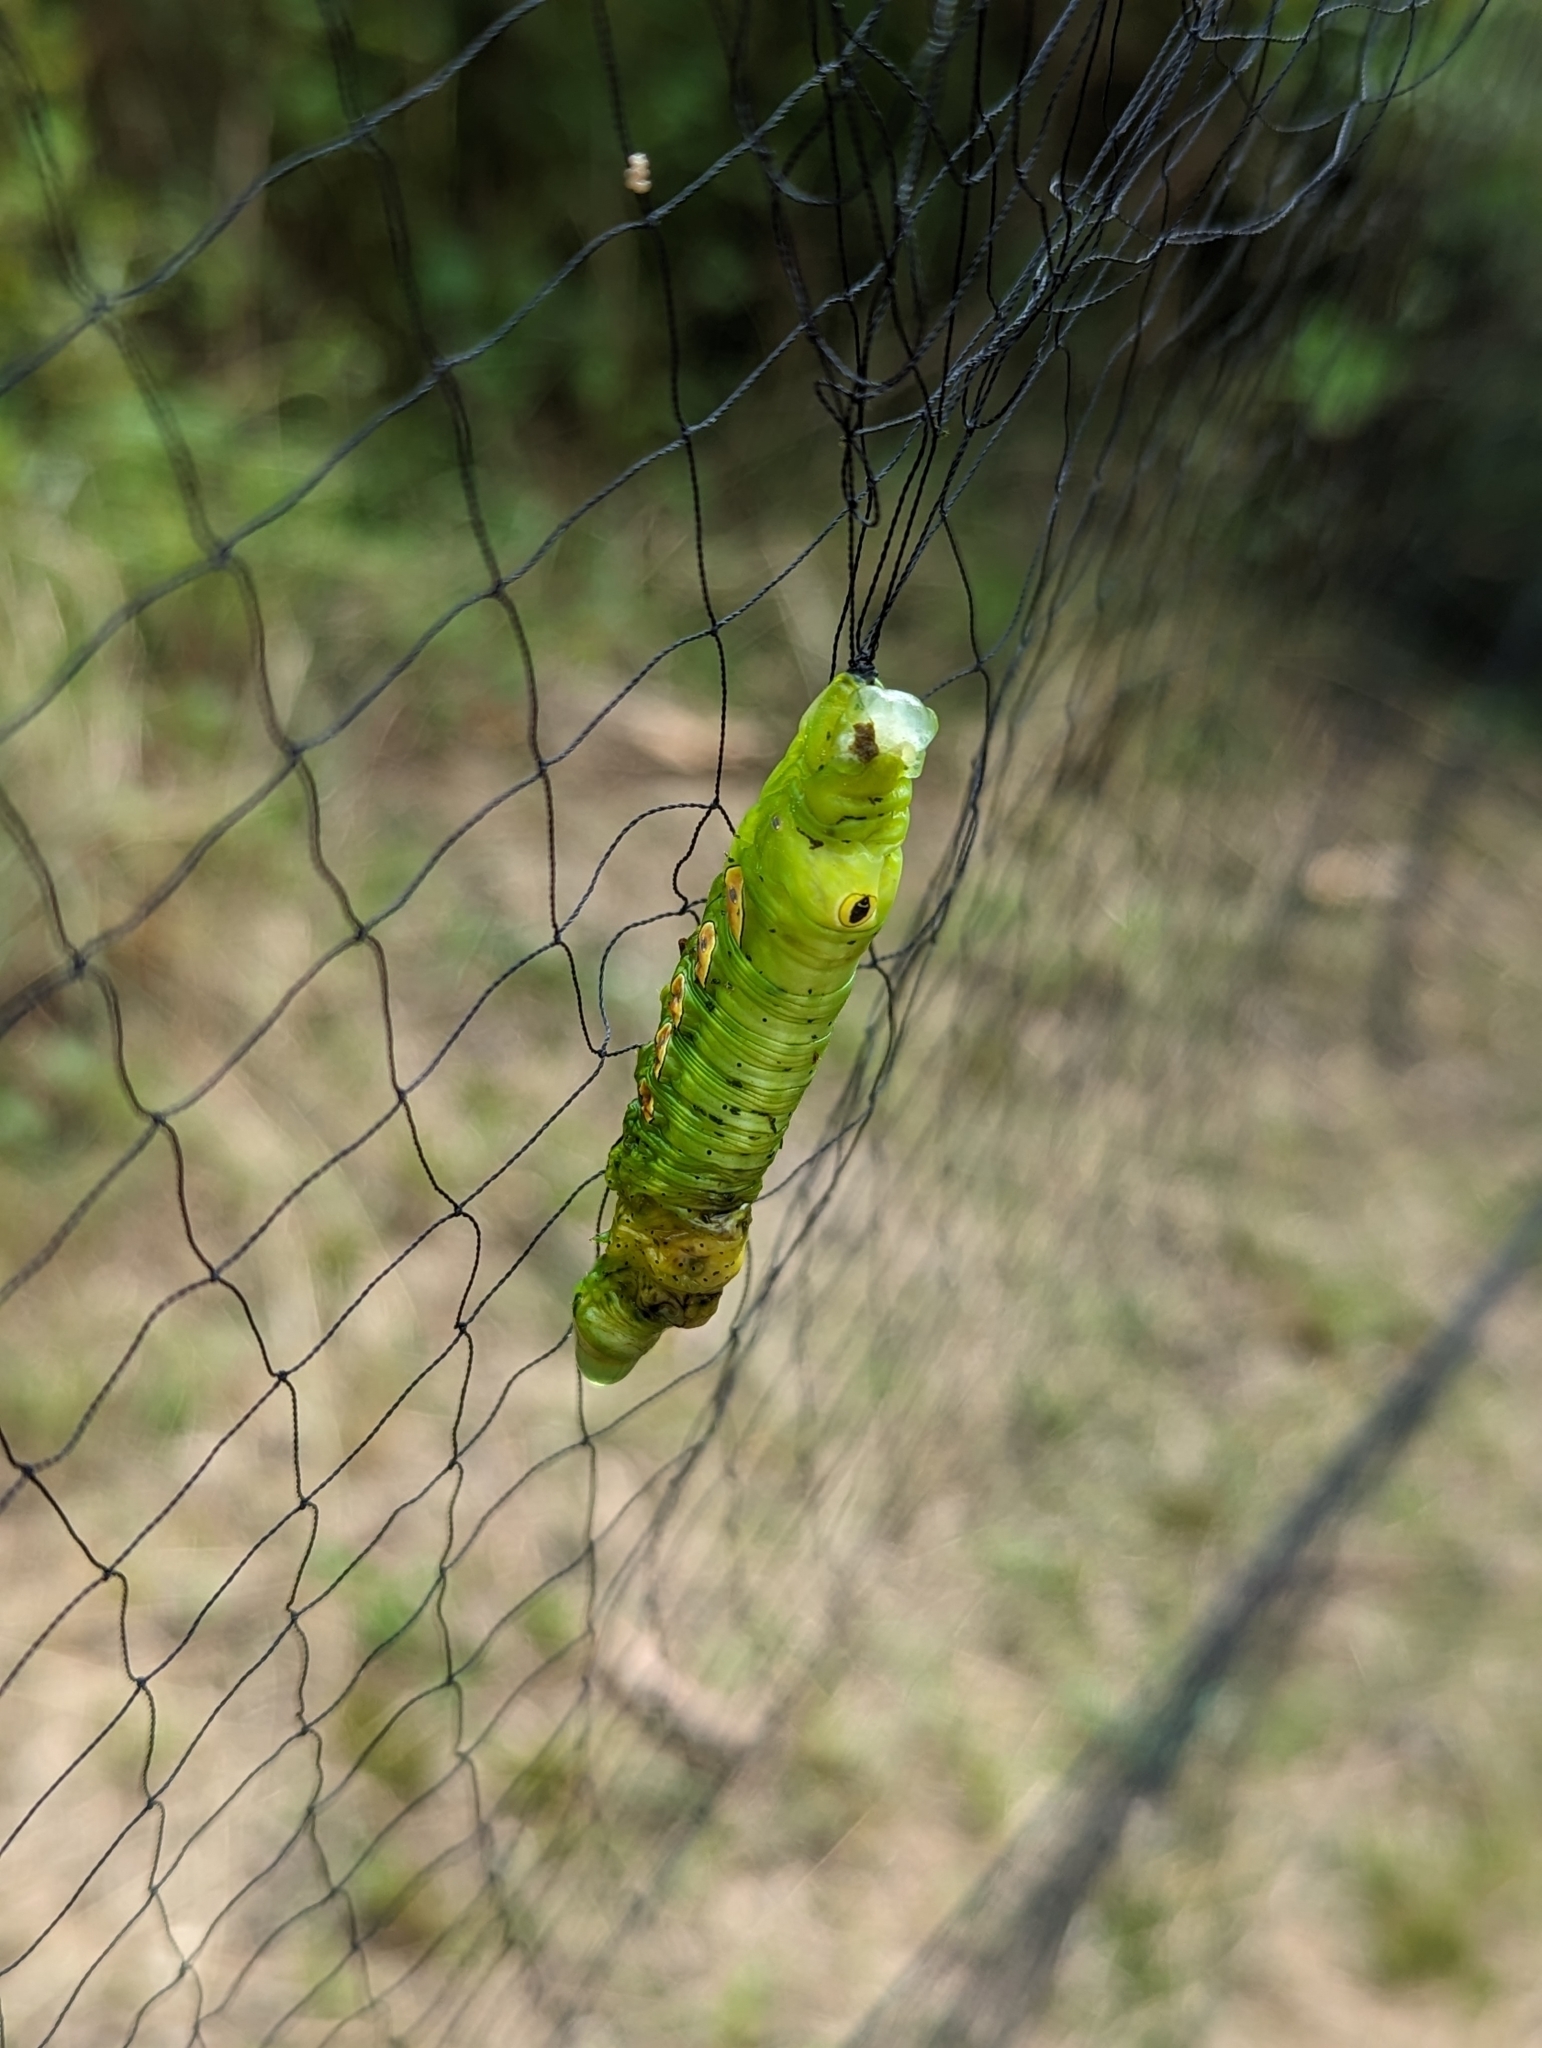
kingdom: Animalia
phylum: Arthropoda
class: Insecta
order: Lepidoptera
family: Sphingidae
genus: Eumorpha
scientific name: Eumorpha pandorus
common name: Pandora sphinx
